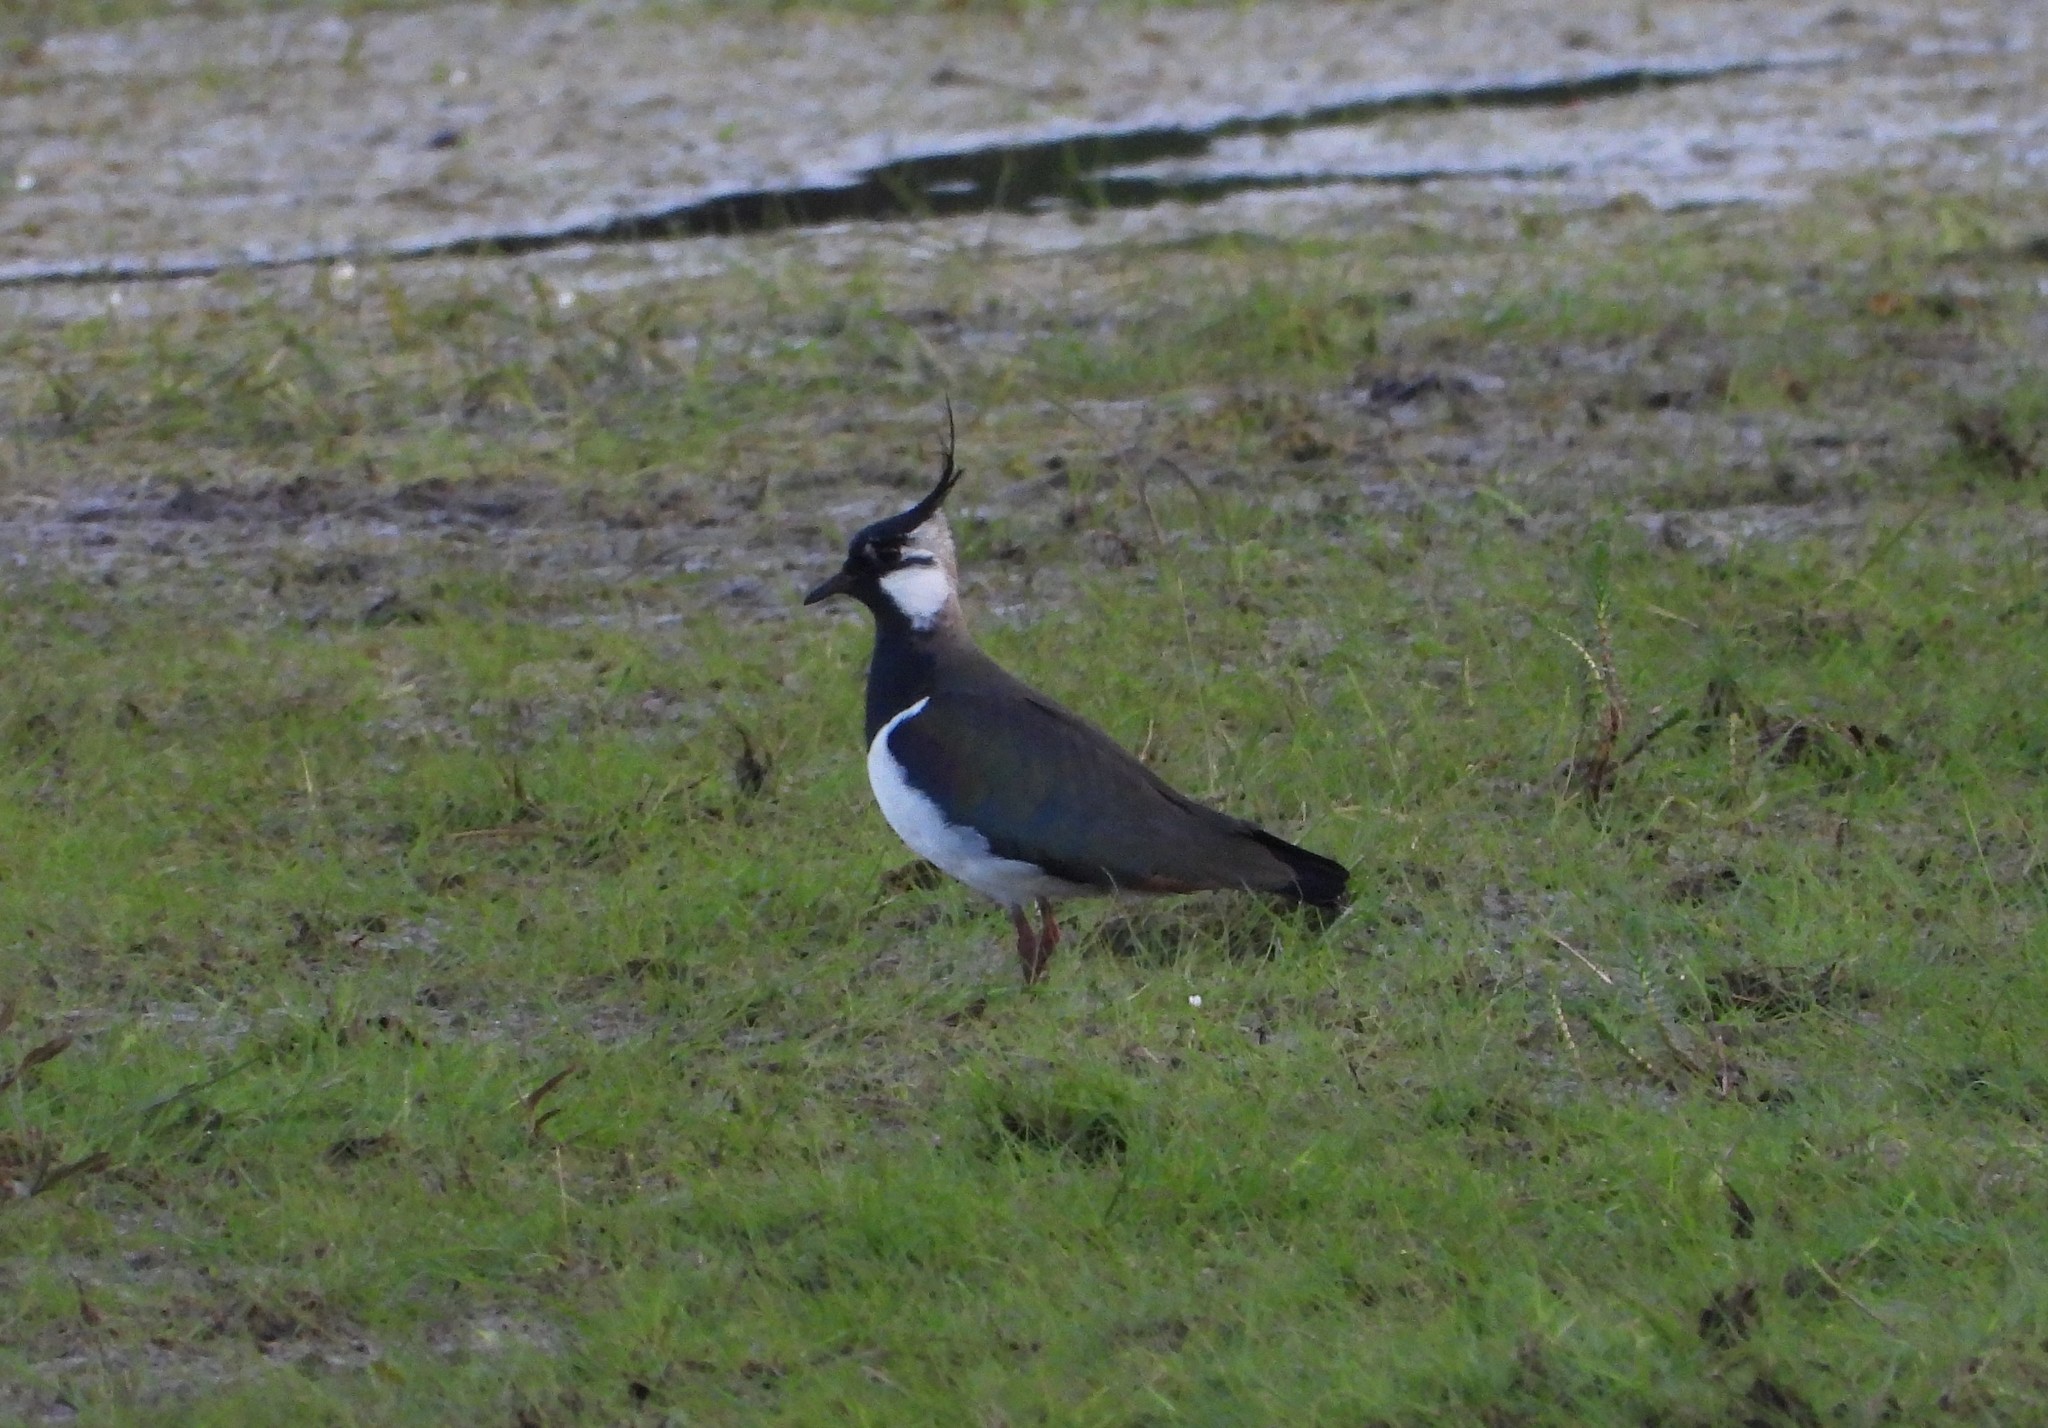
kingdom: Animalia
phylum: Chordata
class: Aves
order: Charadriiformes
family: Charadriidae
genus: Vanellus
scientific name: Vanellus vanellus
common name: Northern lapwing
